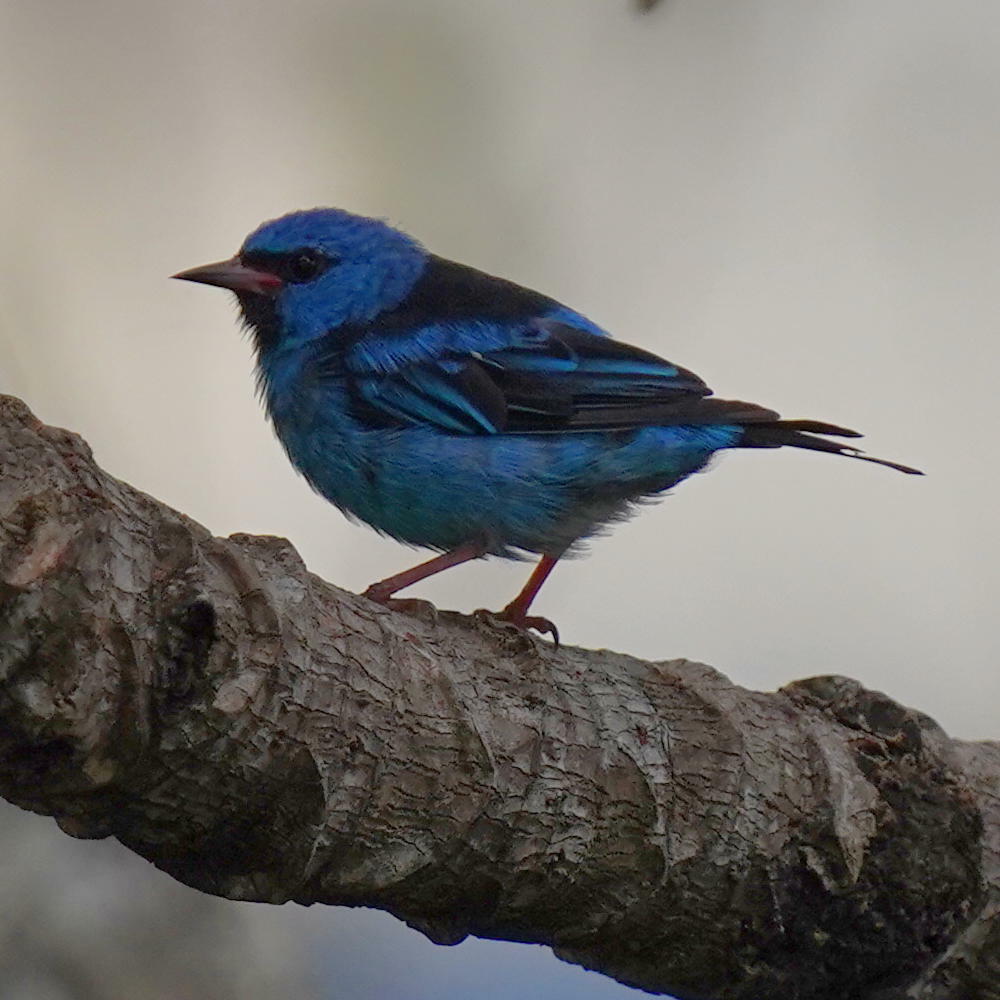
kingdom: Animalia
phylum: Chordata
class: Aves
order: Passeriformes
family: Thraupidae
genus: Dacnis
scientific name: Dacnis cayana
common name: Blue dacnis
